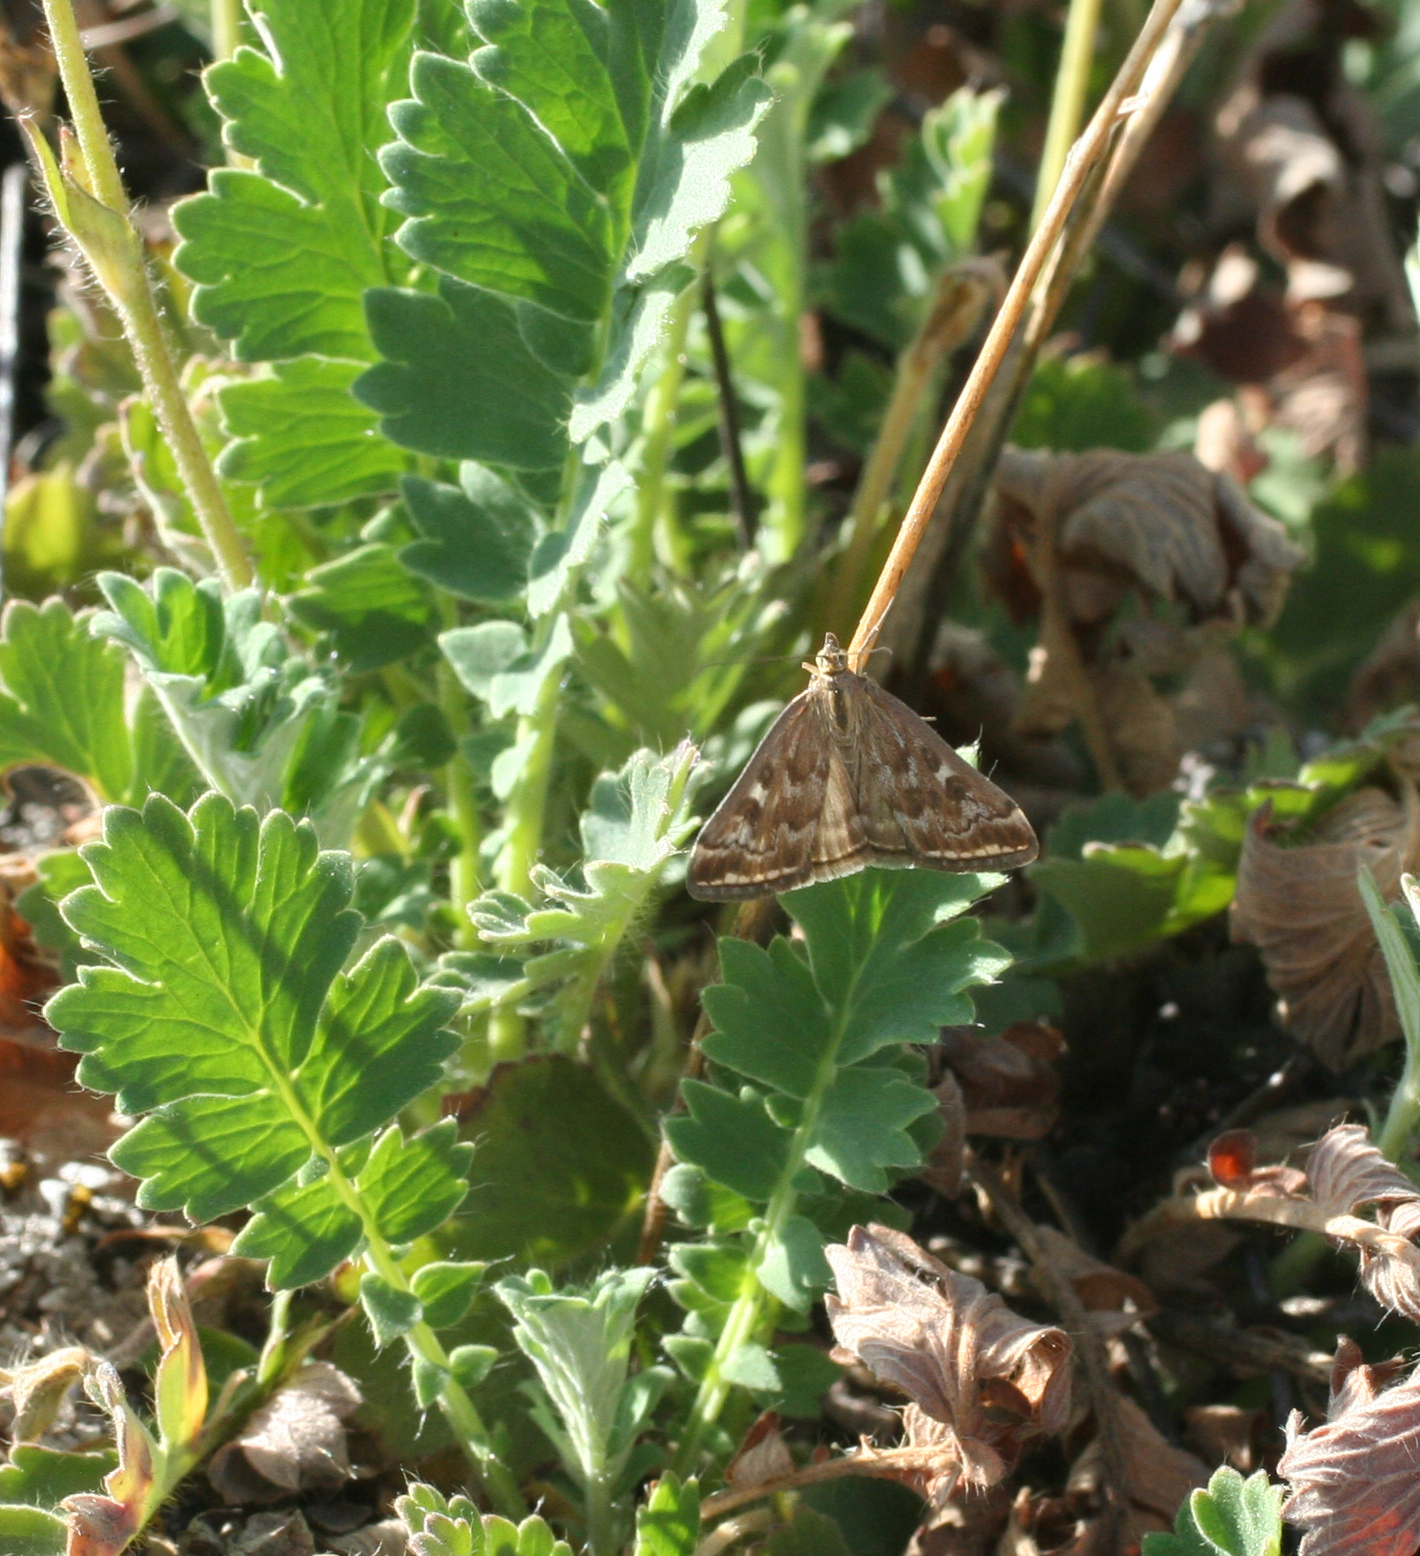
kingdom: Animalia
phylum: Arthropoda
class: Insecta
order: Lepidoptera
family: Crambidae
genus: Loxostege
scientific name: Loxostege sticticalis
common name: Crambid moth
